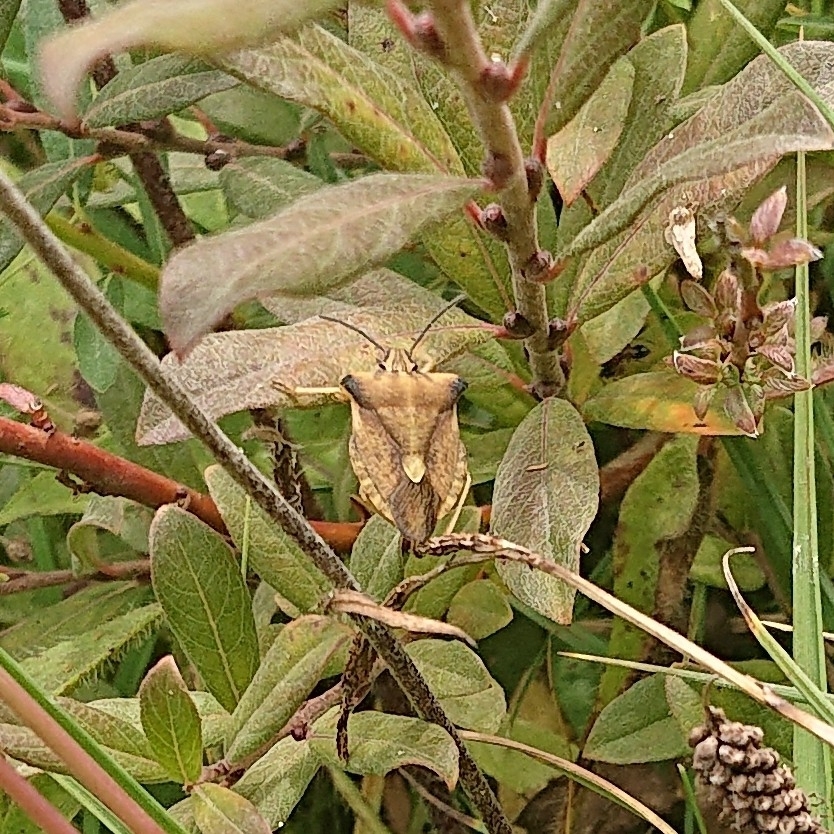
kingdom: Animalia
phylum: Arthropoda
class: Insecta
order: Hemiptera
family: Pentatomidae
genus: Carpocoris
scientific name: Carpocoris fuscispinus
